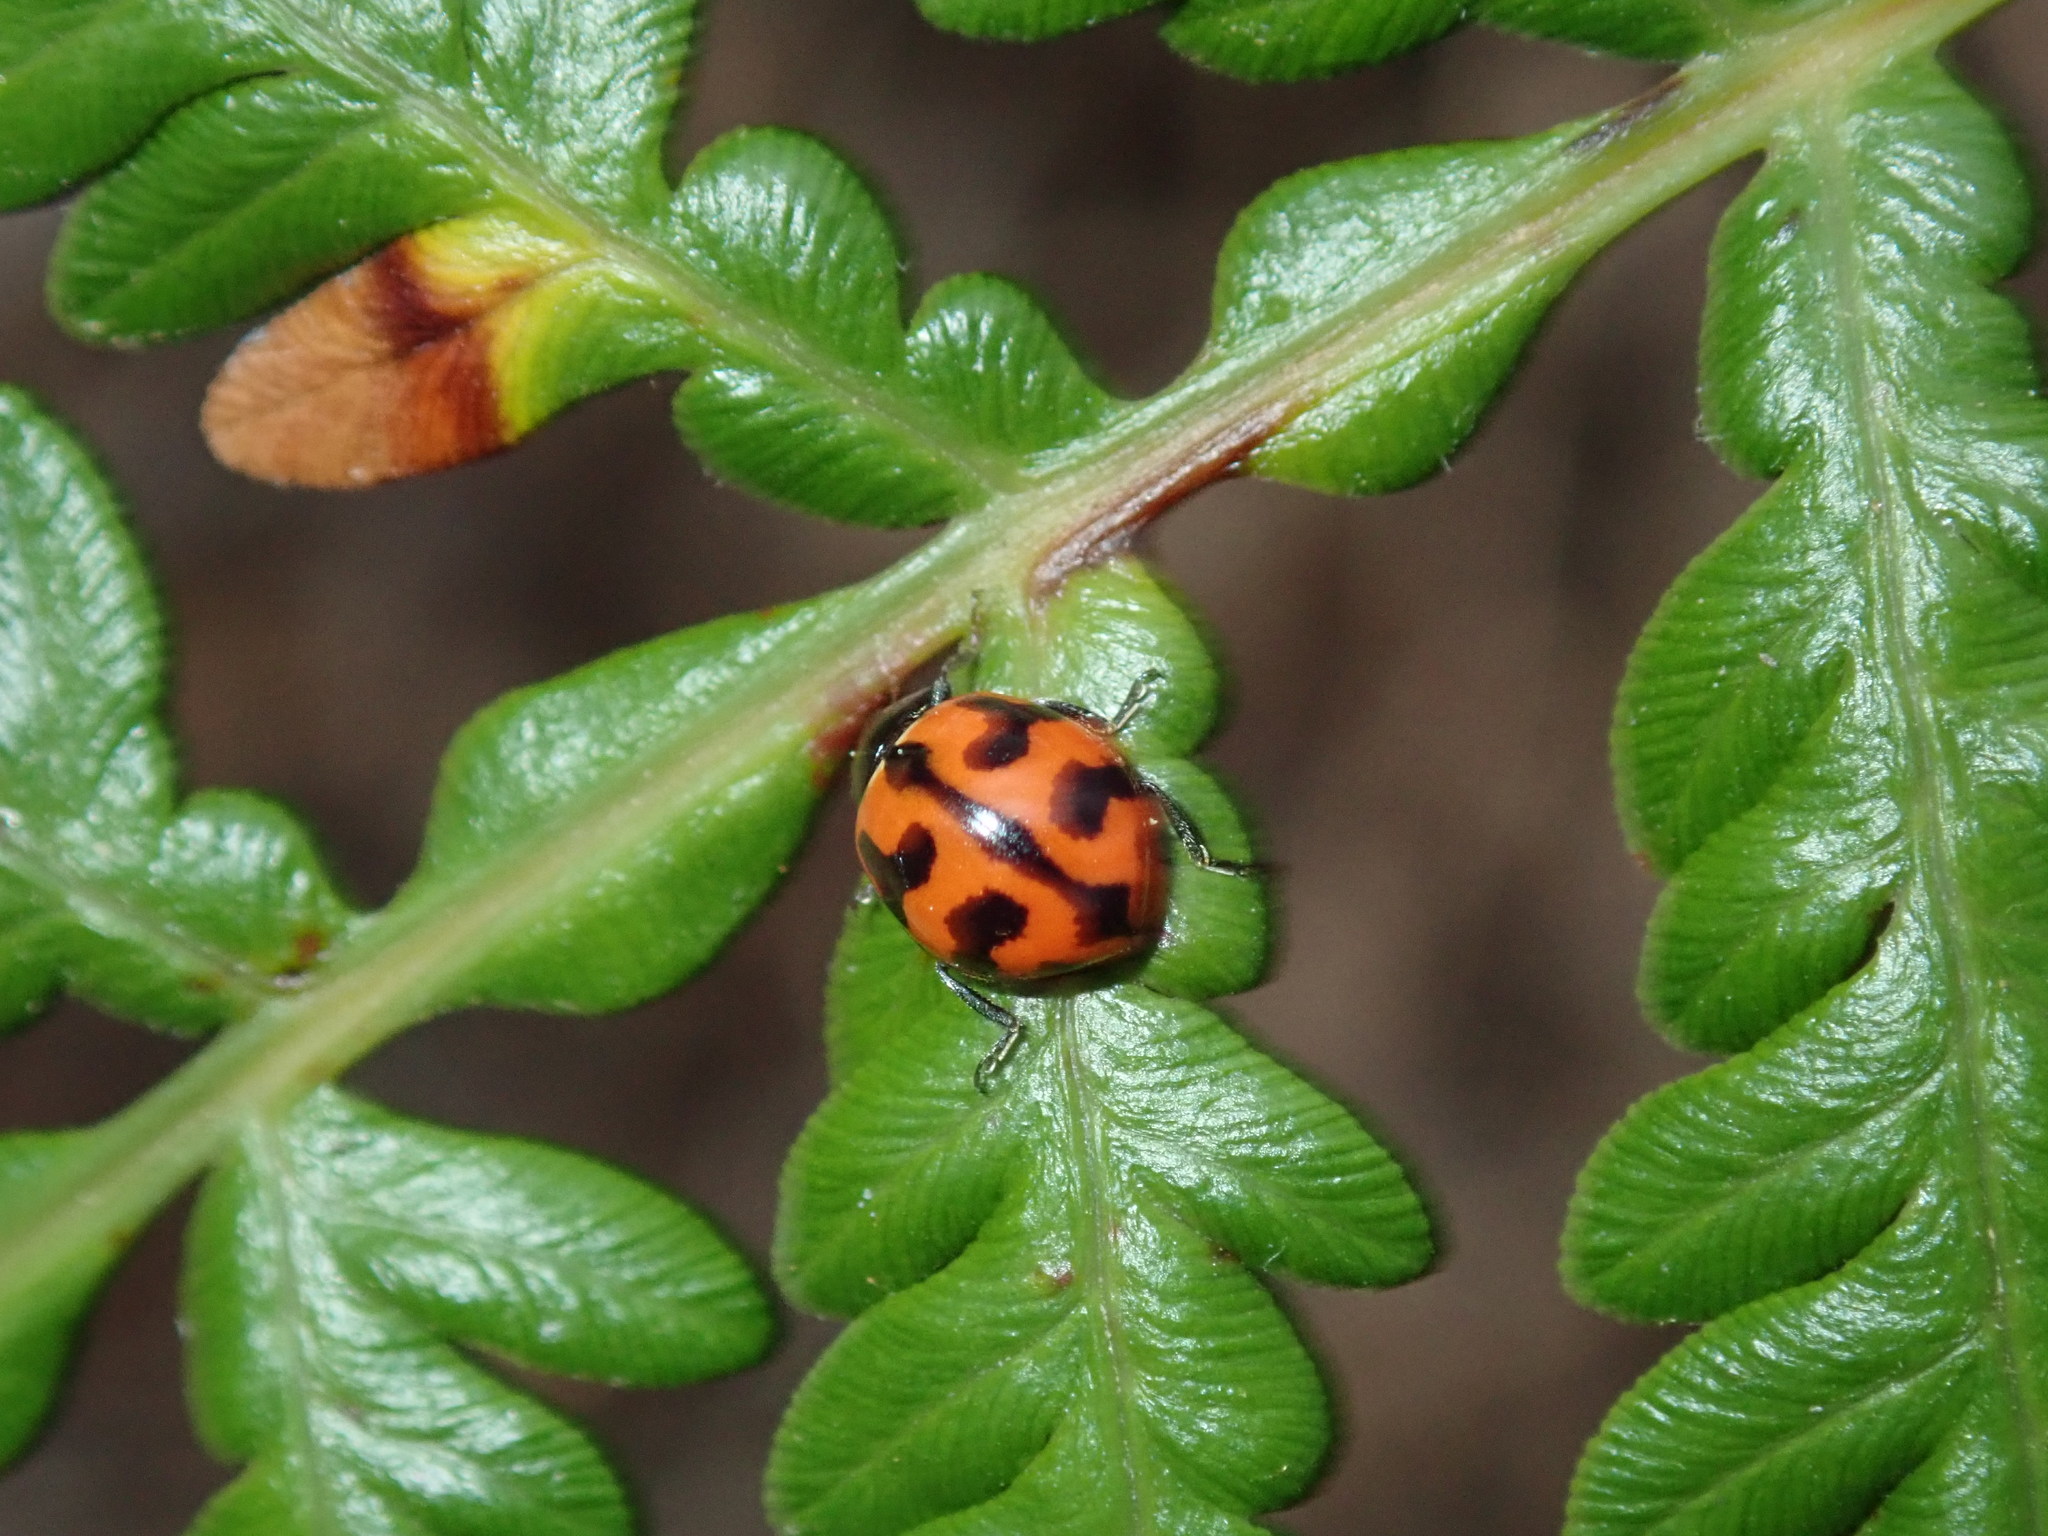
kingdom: Animalia
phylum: Arthropoda
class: Insecta
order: Coleoptera
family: Coccinellidae
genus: Coccinella
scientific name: Coccinella transversalis
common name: Transverse lady beetle
